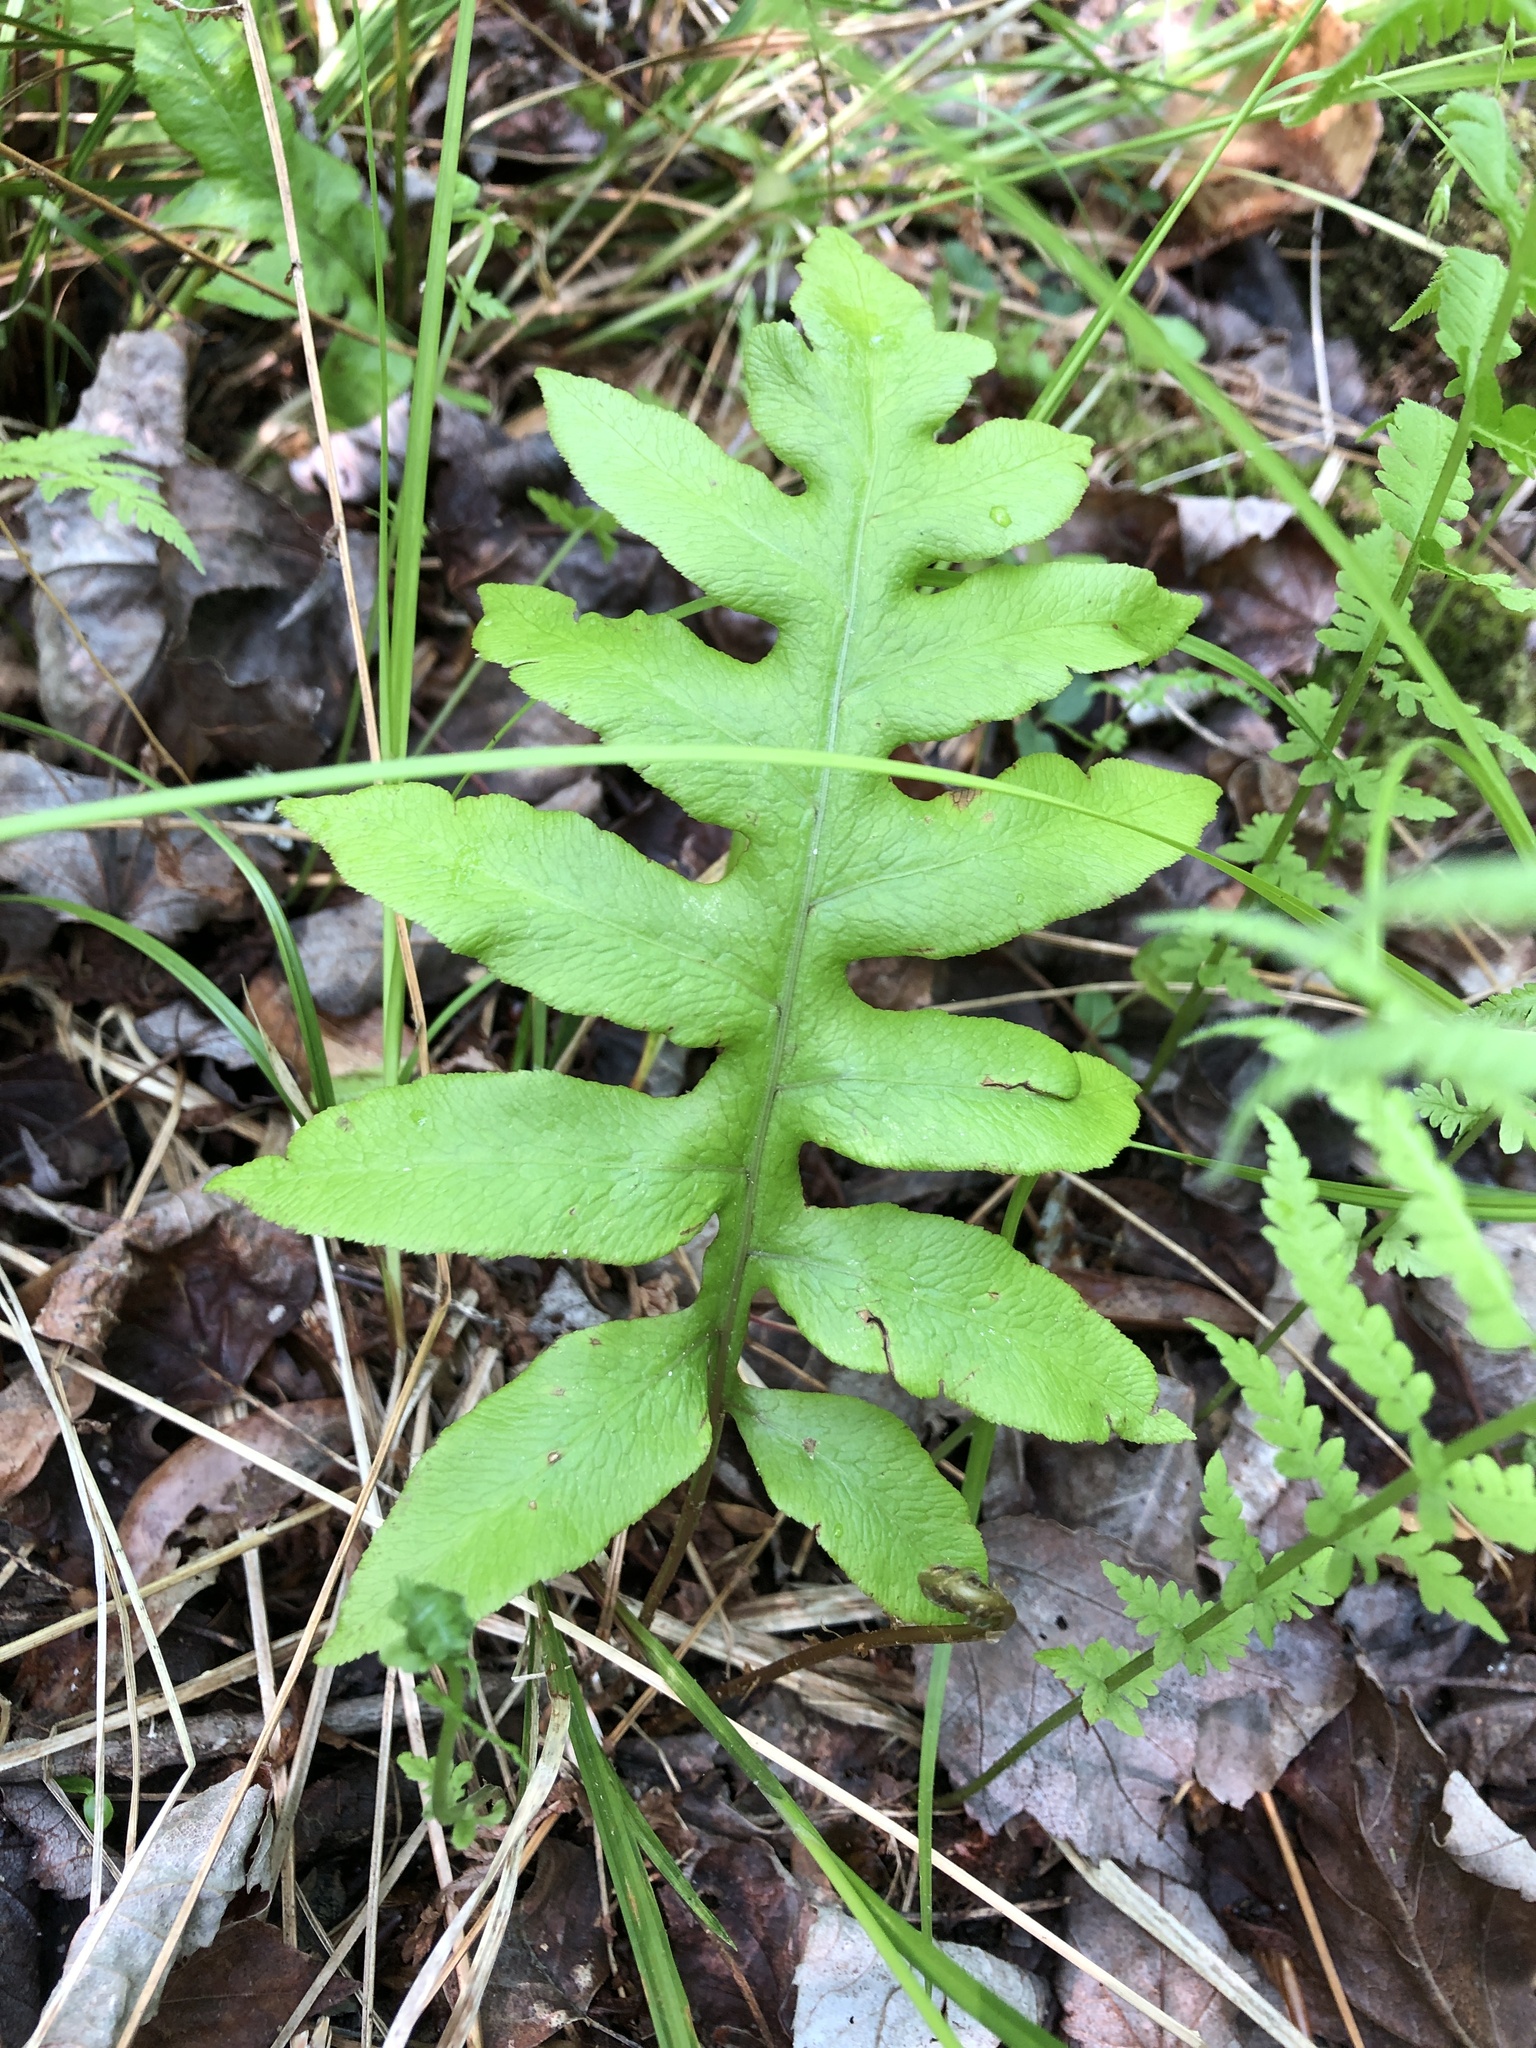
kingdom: Plantae
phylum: Tracheophyta
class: Polypodiopsida
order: Polypodiales
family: Blechnaceae
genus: Lorinseria
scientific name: Lorinseria areolata
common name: Dwarf chain fern
